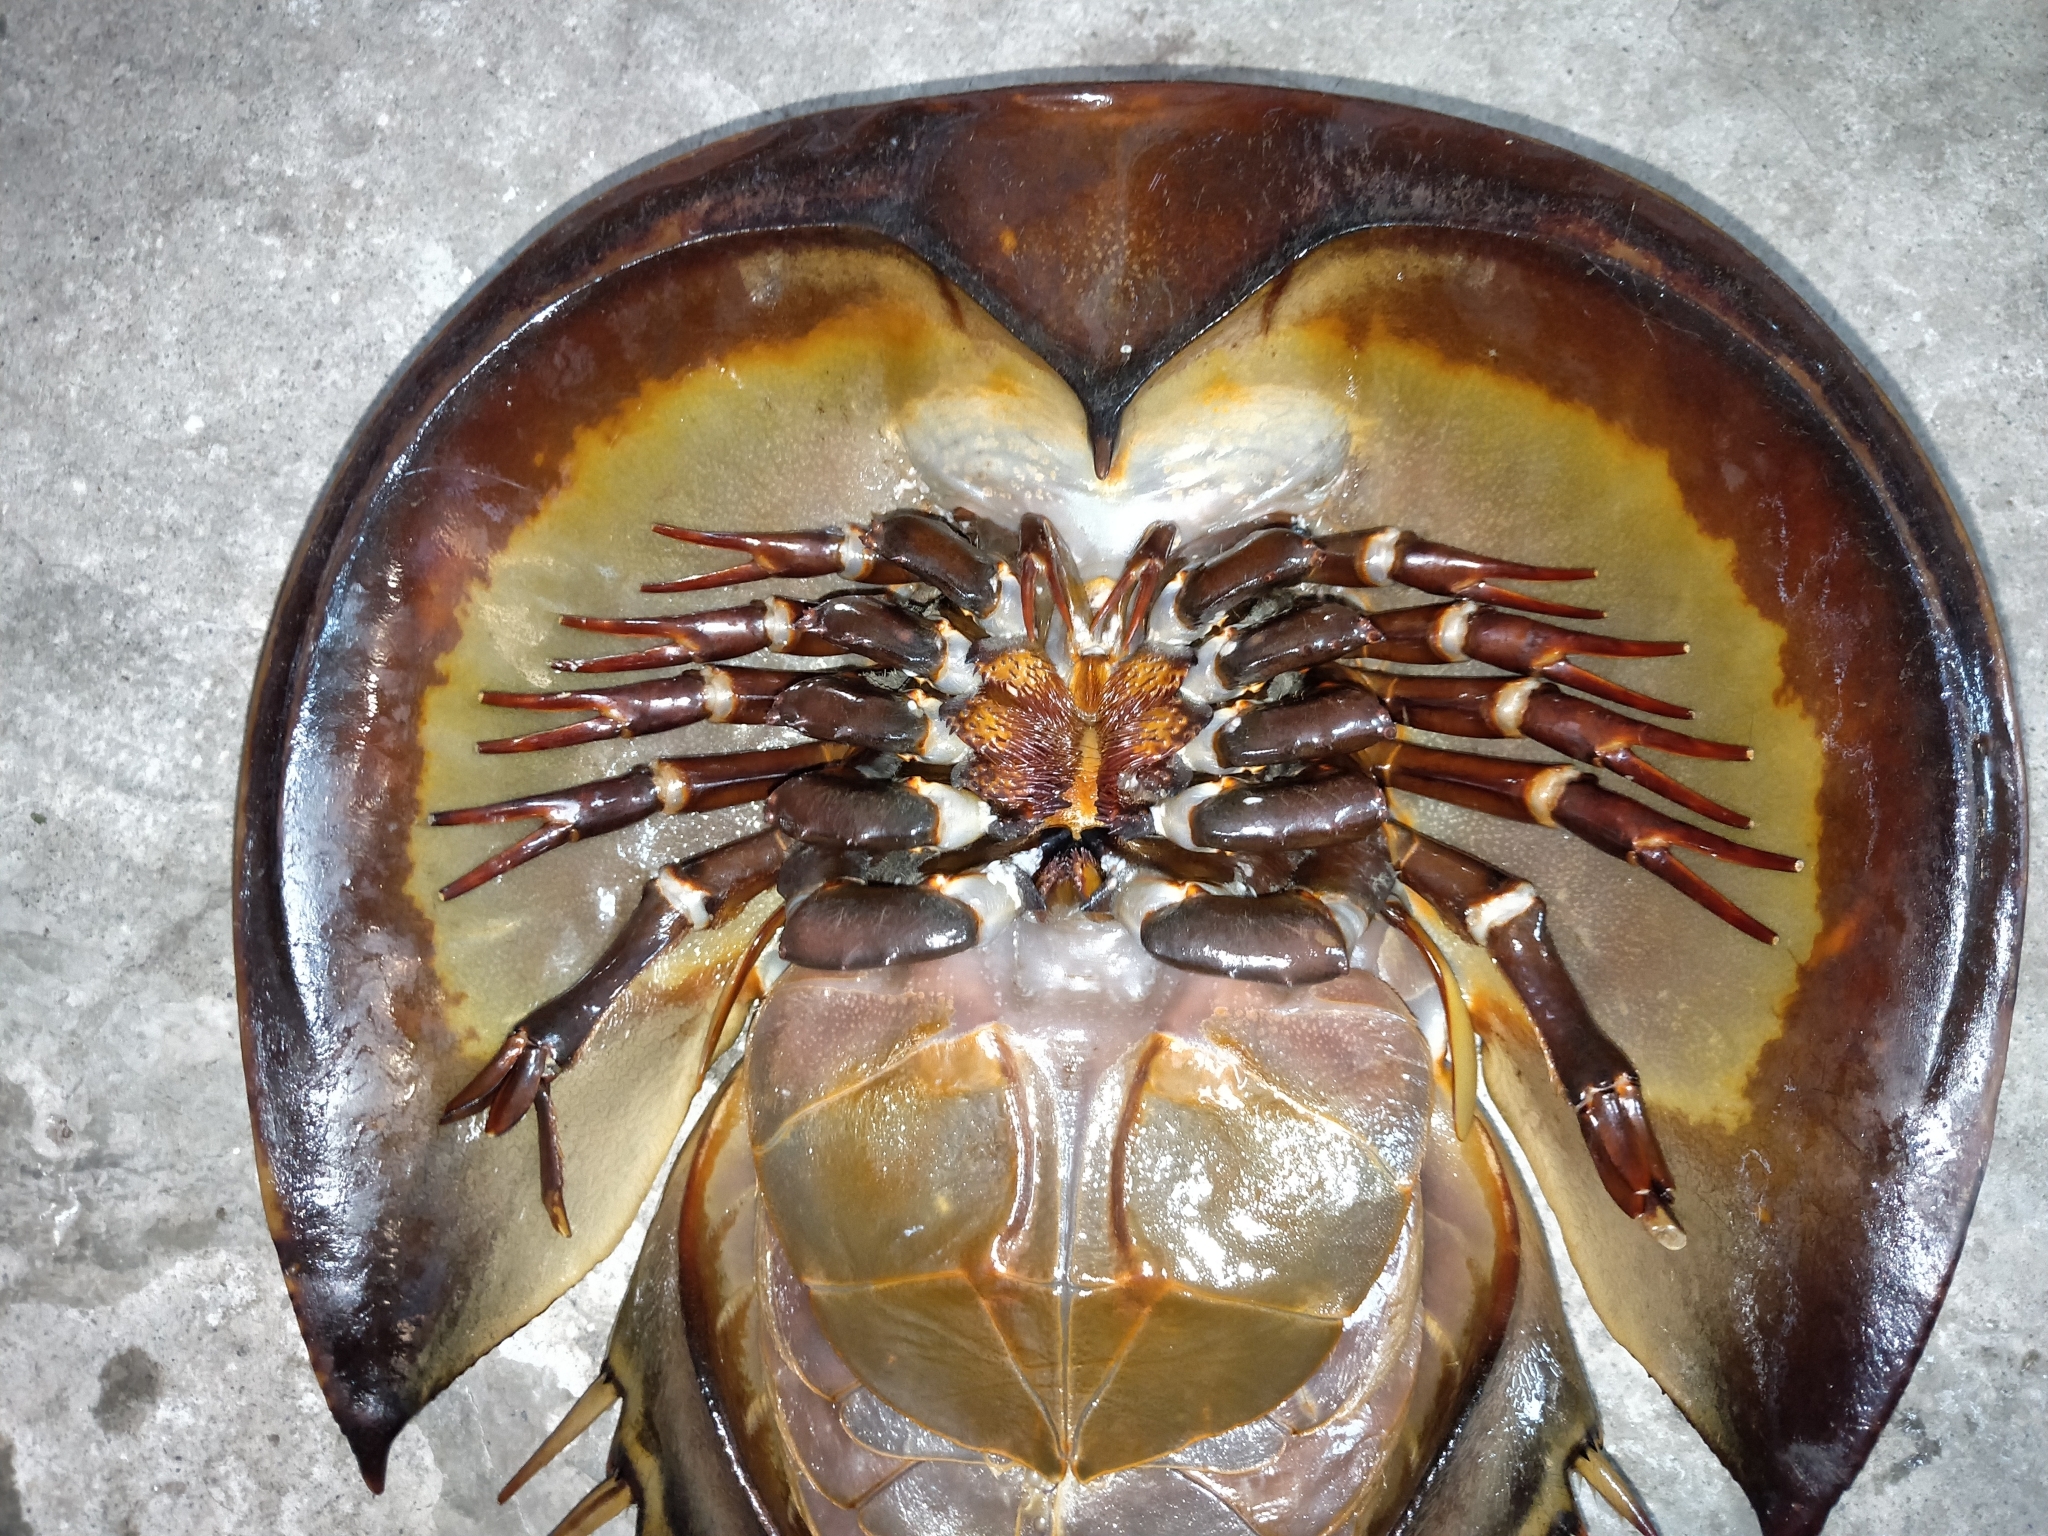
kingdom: Animalia
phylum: Arthropoda
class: Merostomata
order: Xiphosurida
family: Limulidae
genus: Tachypleus
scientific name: Tachypleus tridentatus
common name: Tri-spine horseshoe crab
